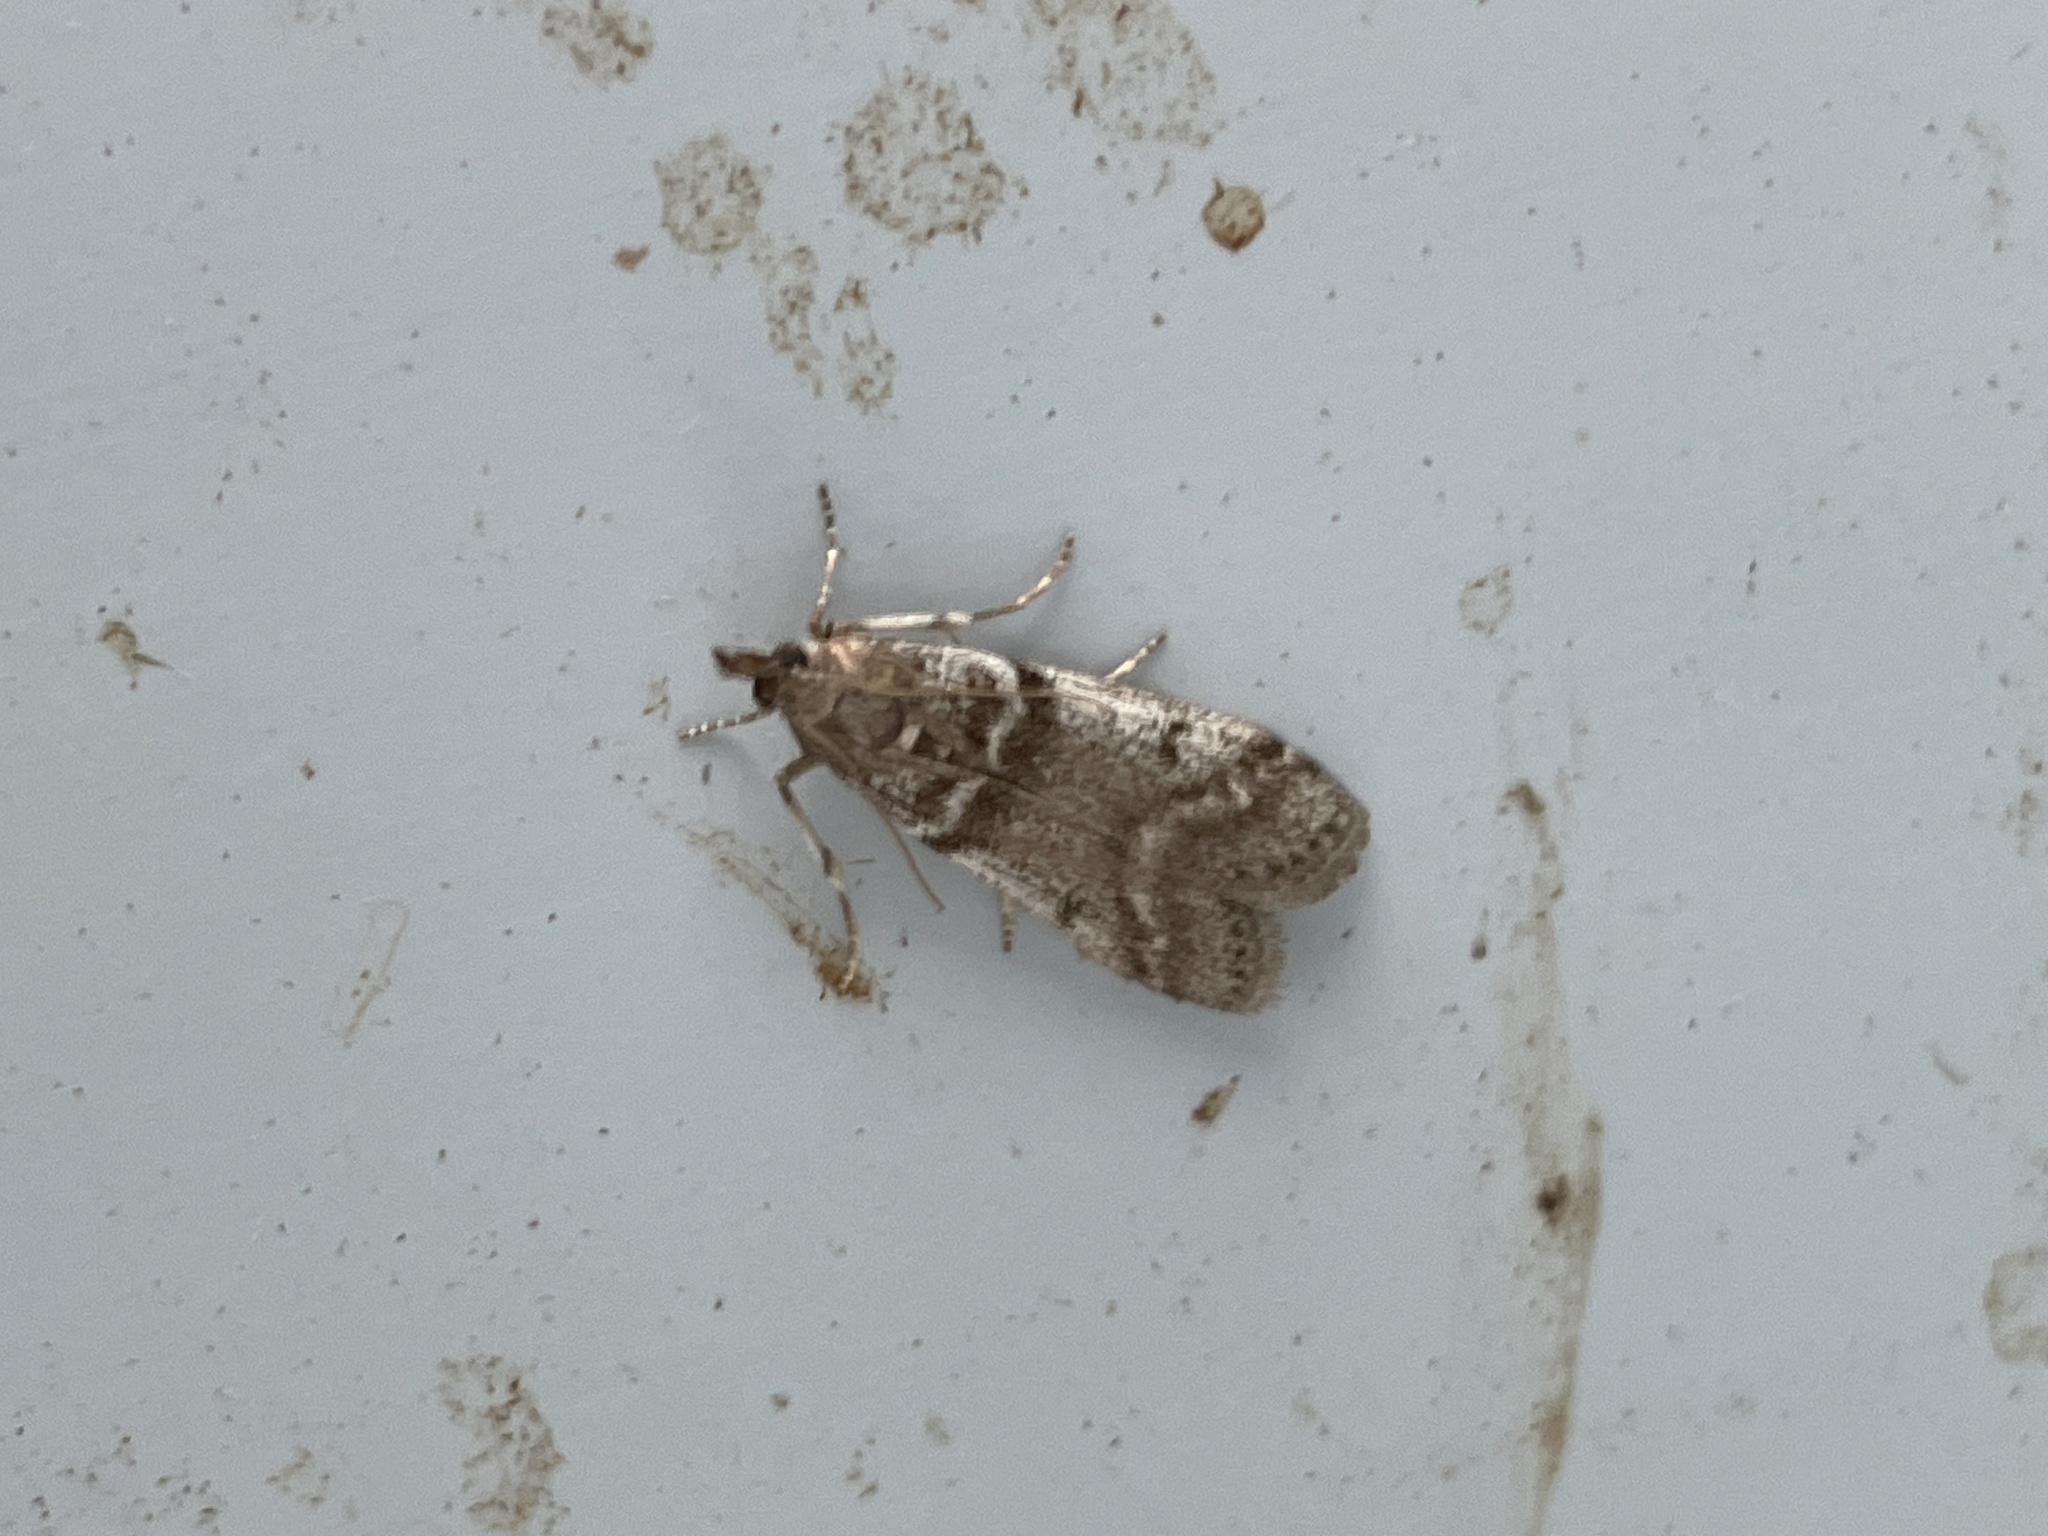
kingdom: Animalia
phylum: Arthropoda
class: Insecta
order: Lepidoptera
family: Pyralidae
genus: Zophodia
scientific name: Zophodia convolutella
